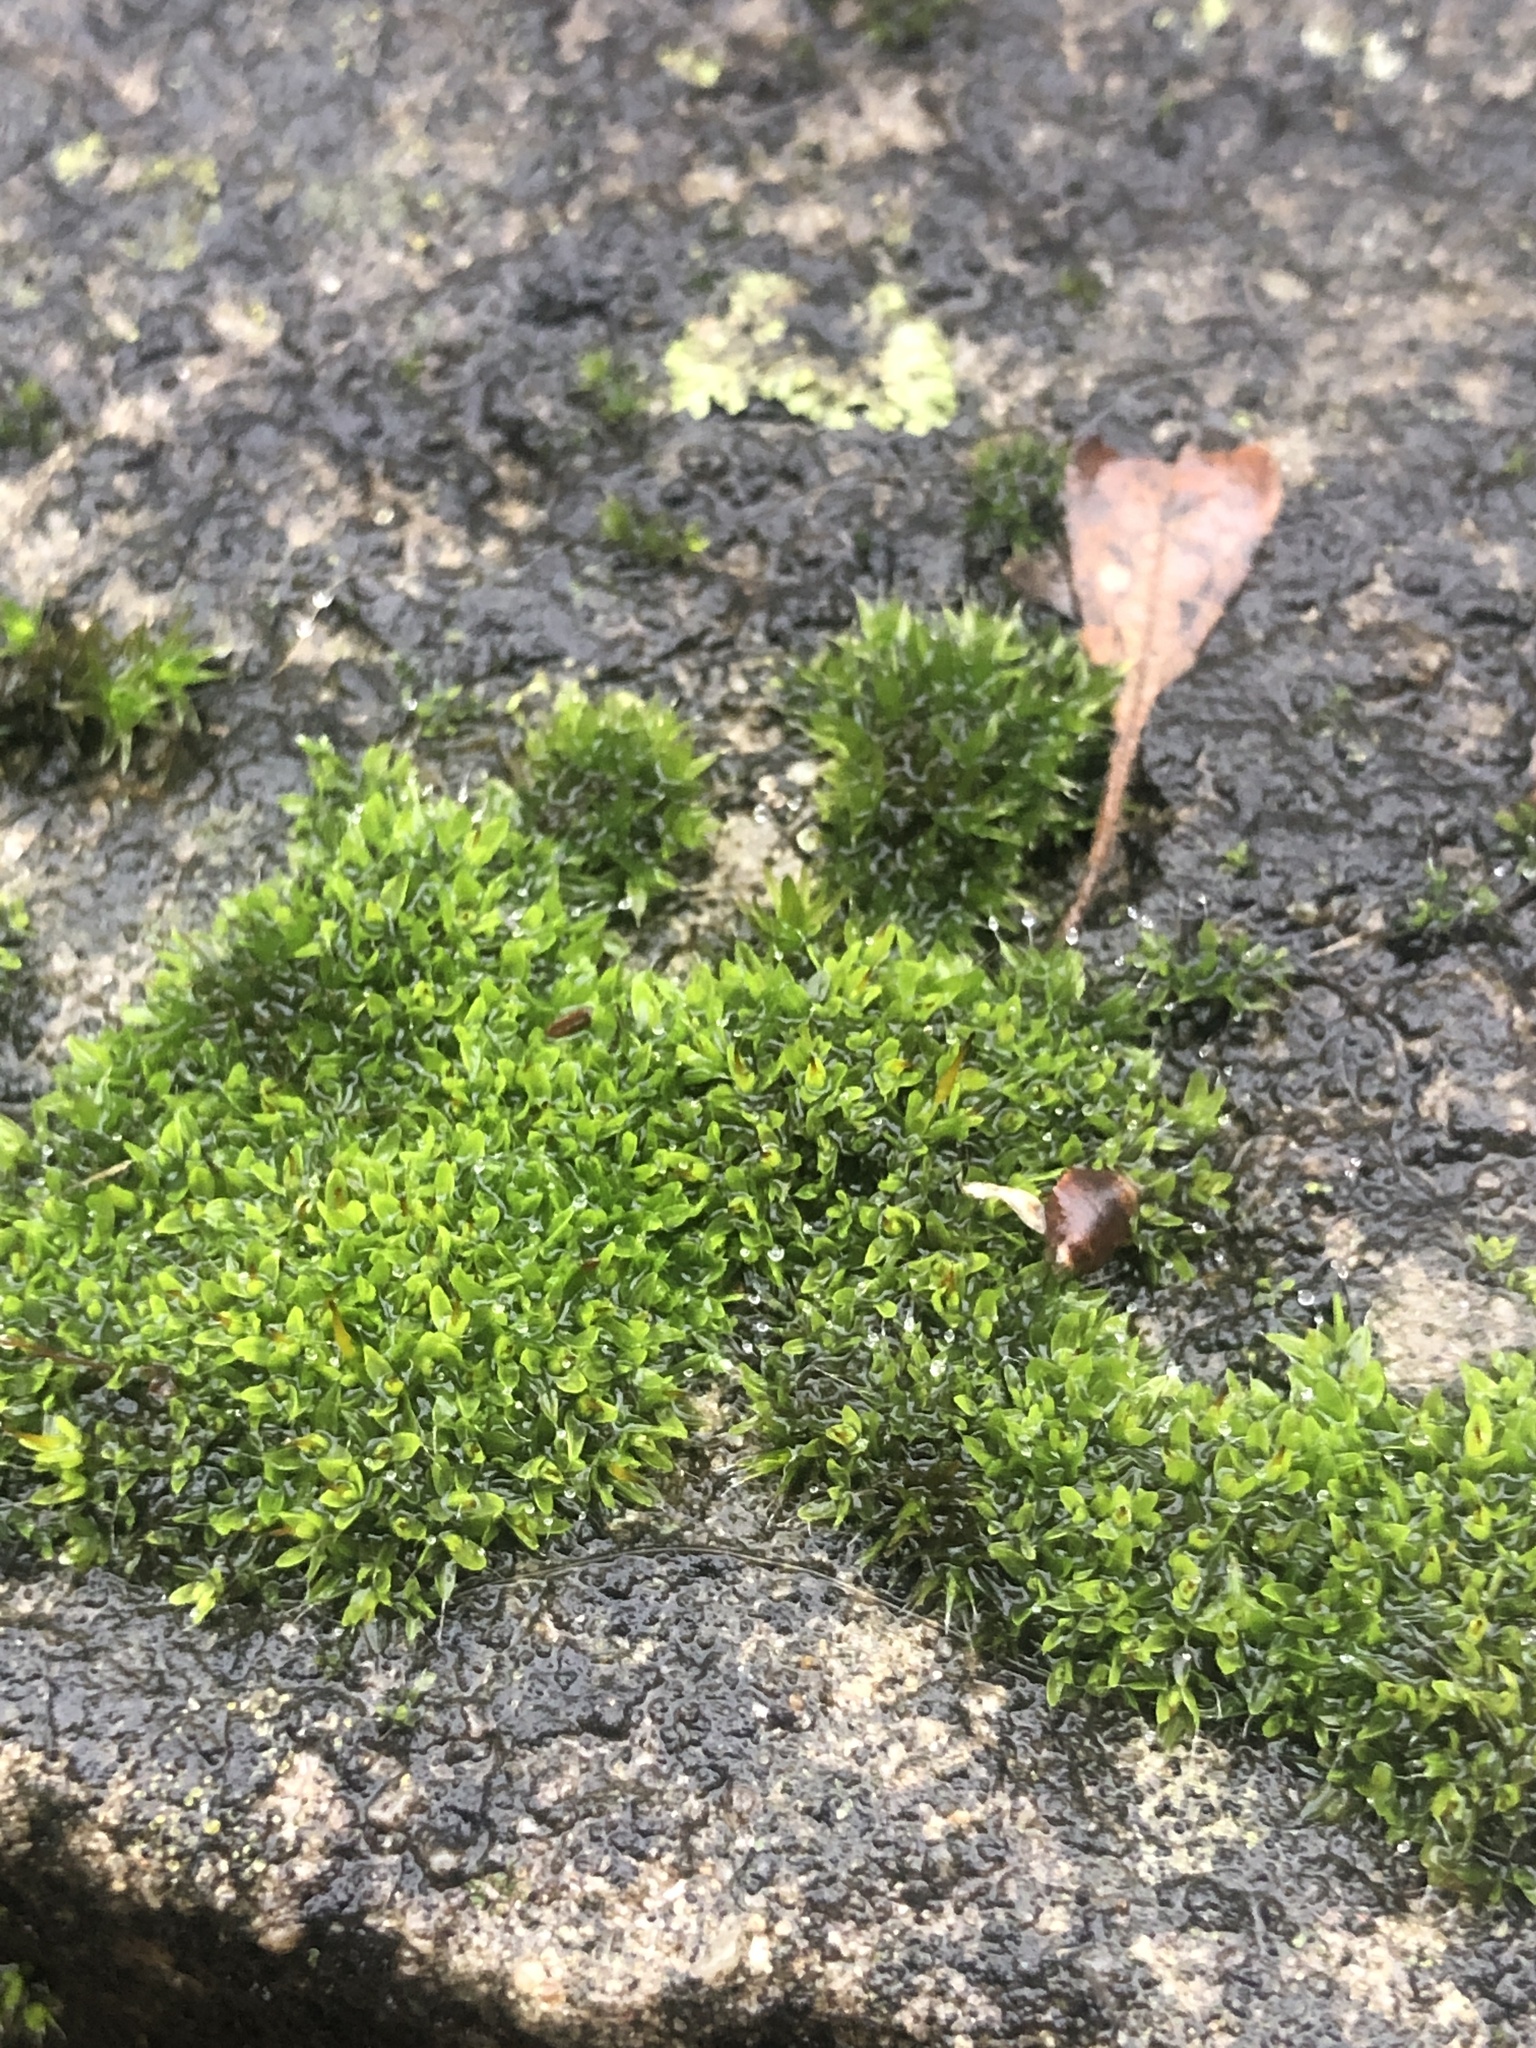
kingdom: Plantae
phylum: Bryophyta
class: Bryopsida
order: Pottiales
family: Pottiaceae
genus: Tortula
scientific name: Tortula muralis
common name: Wall screw-moss
